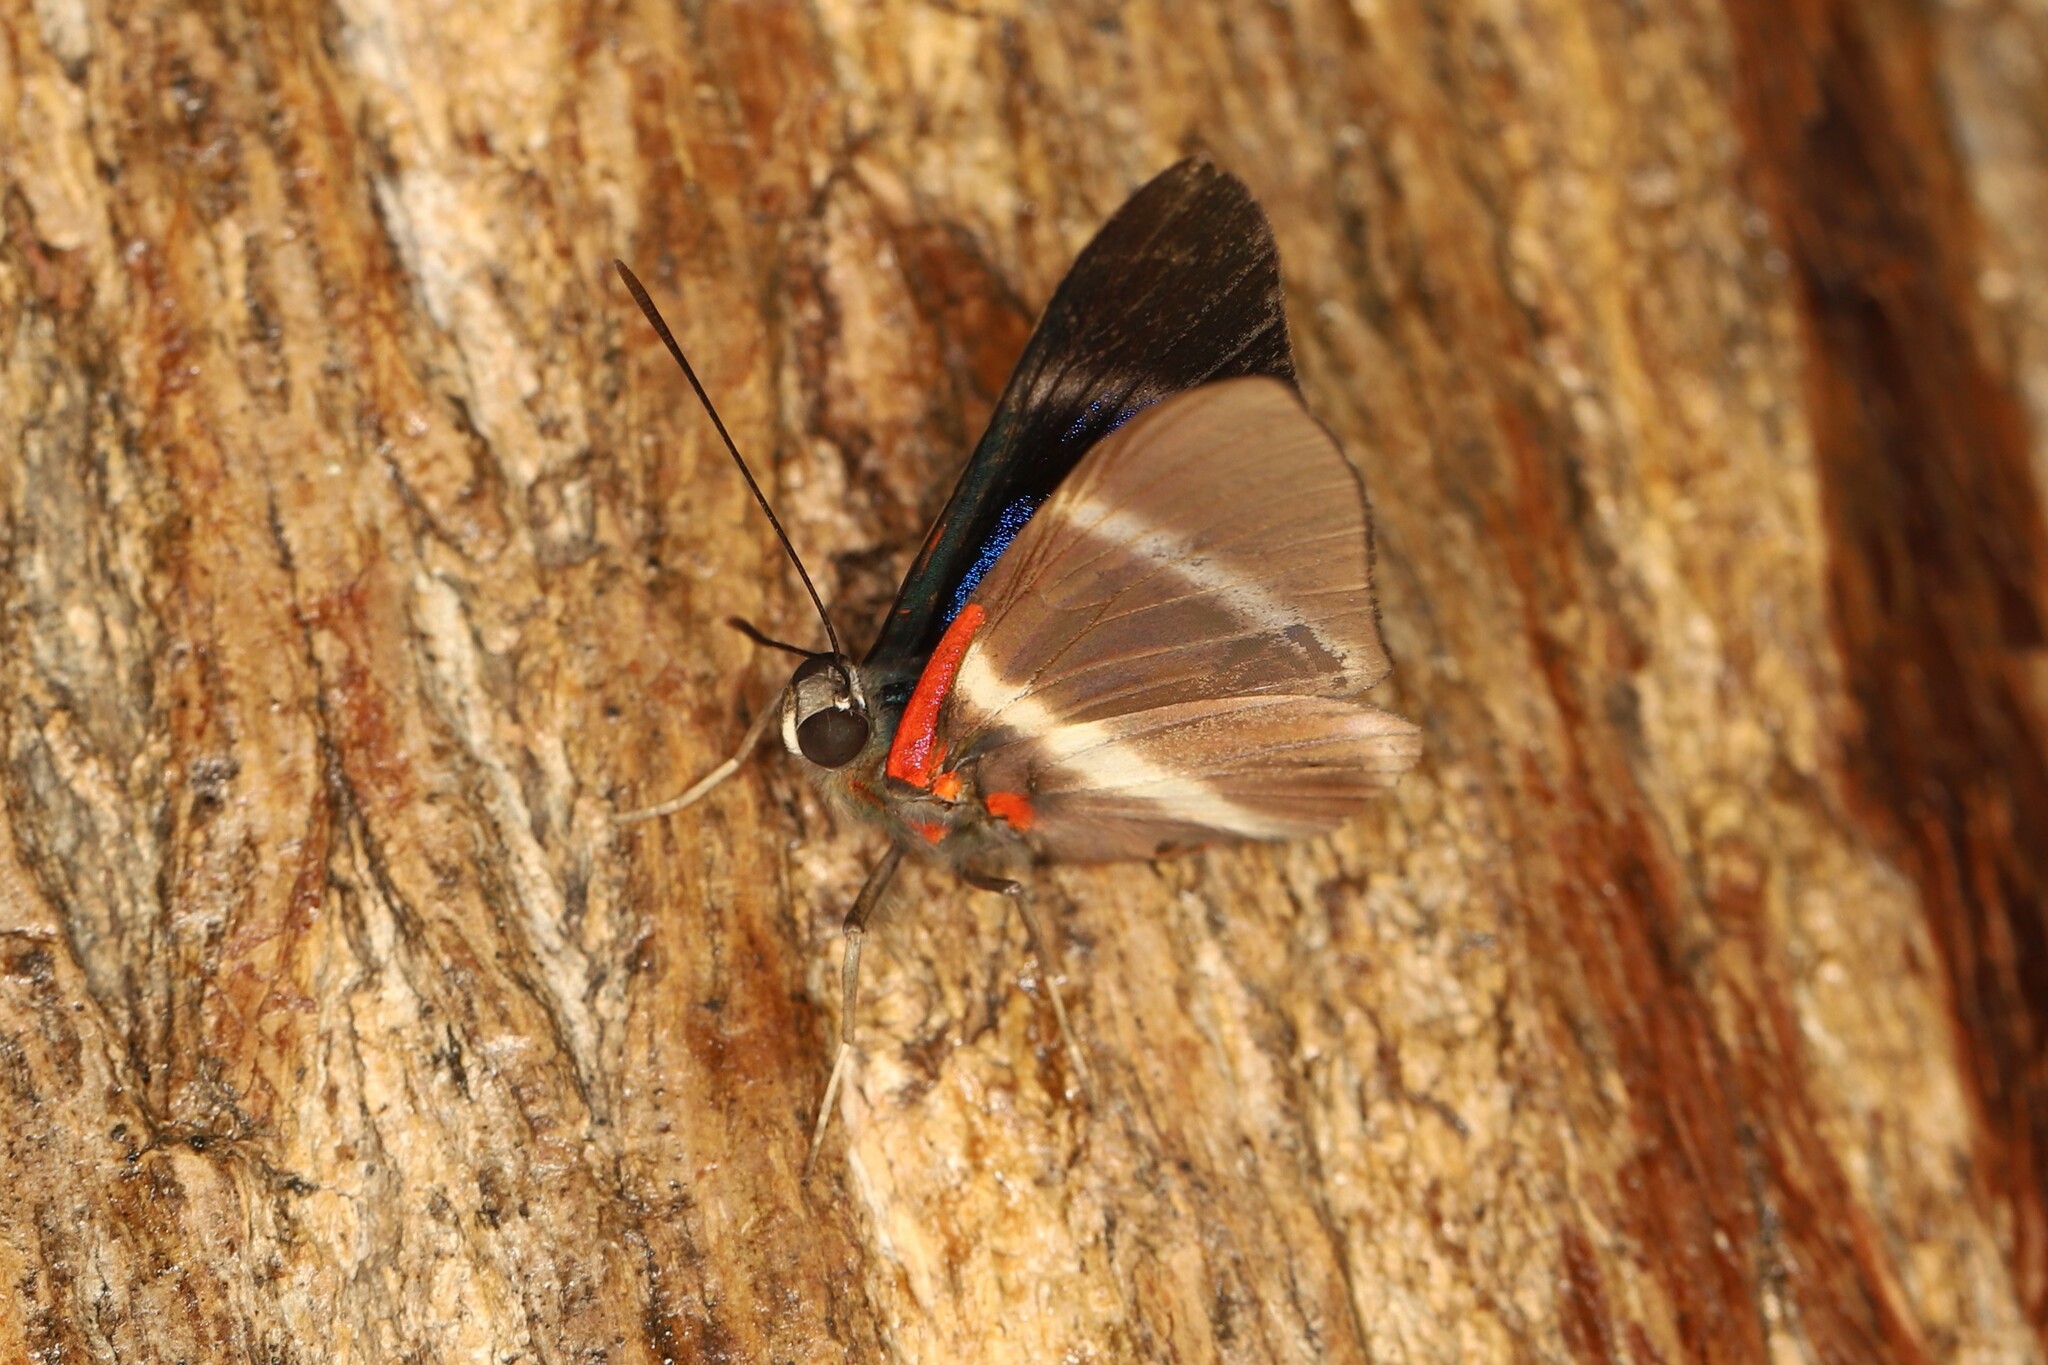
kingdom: Animalia
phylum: Arthropoda
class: Insecta
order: Lepidoptera
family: Riodinidae
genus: Rhetus
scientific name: Rhetus periander
